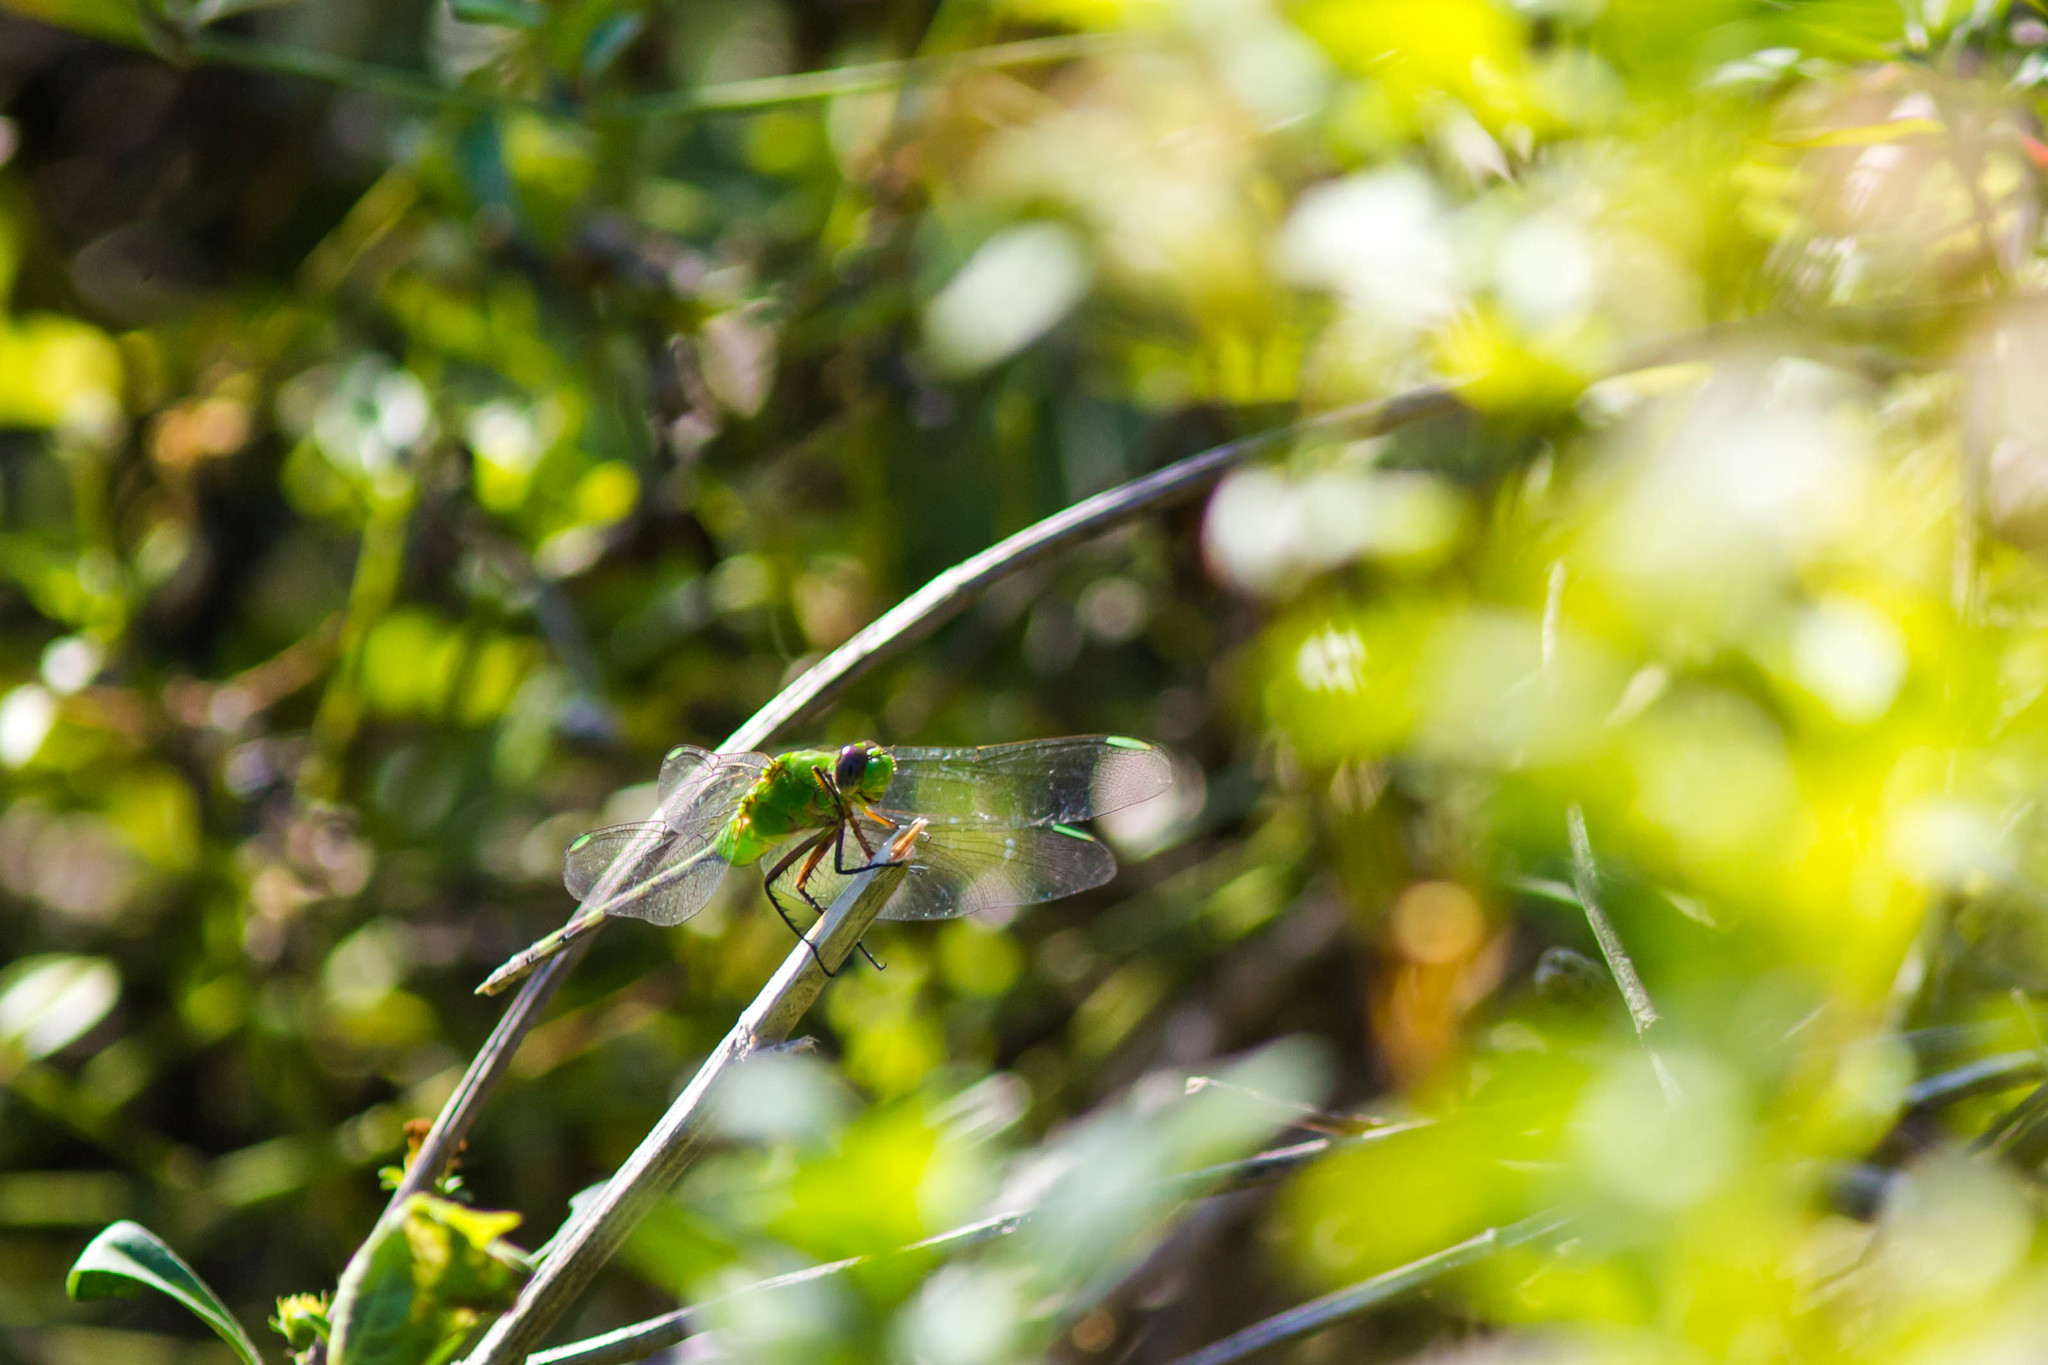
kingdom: Animalia
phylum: Arthropoda
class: Insecta
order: Odonata
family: Libellulidae
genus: Erythemis
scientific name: Erythemis vesiculosa
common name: Great pondhawk
